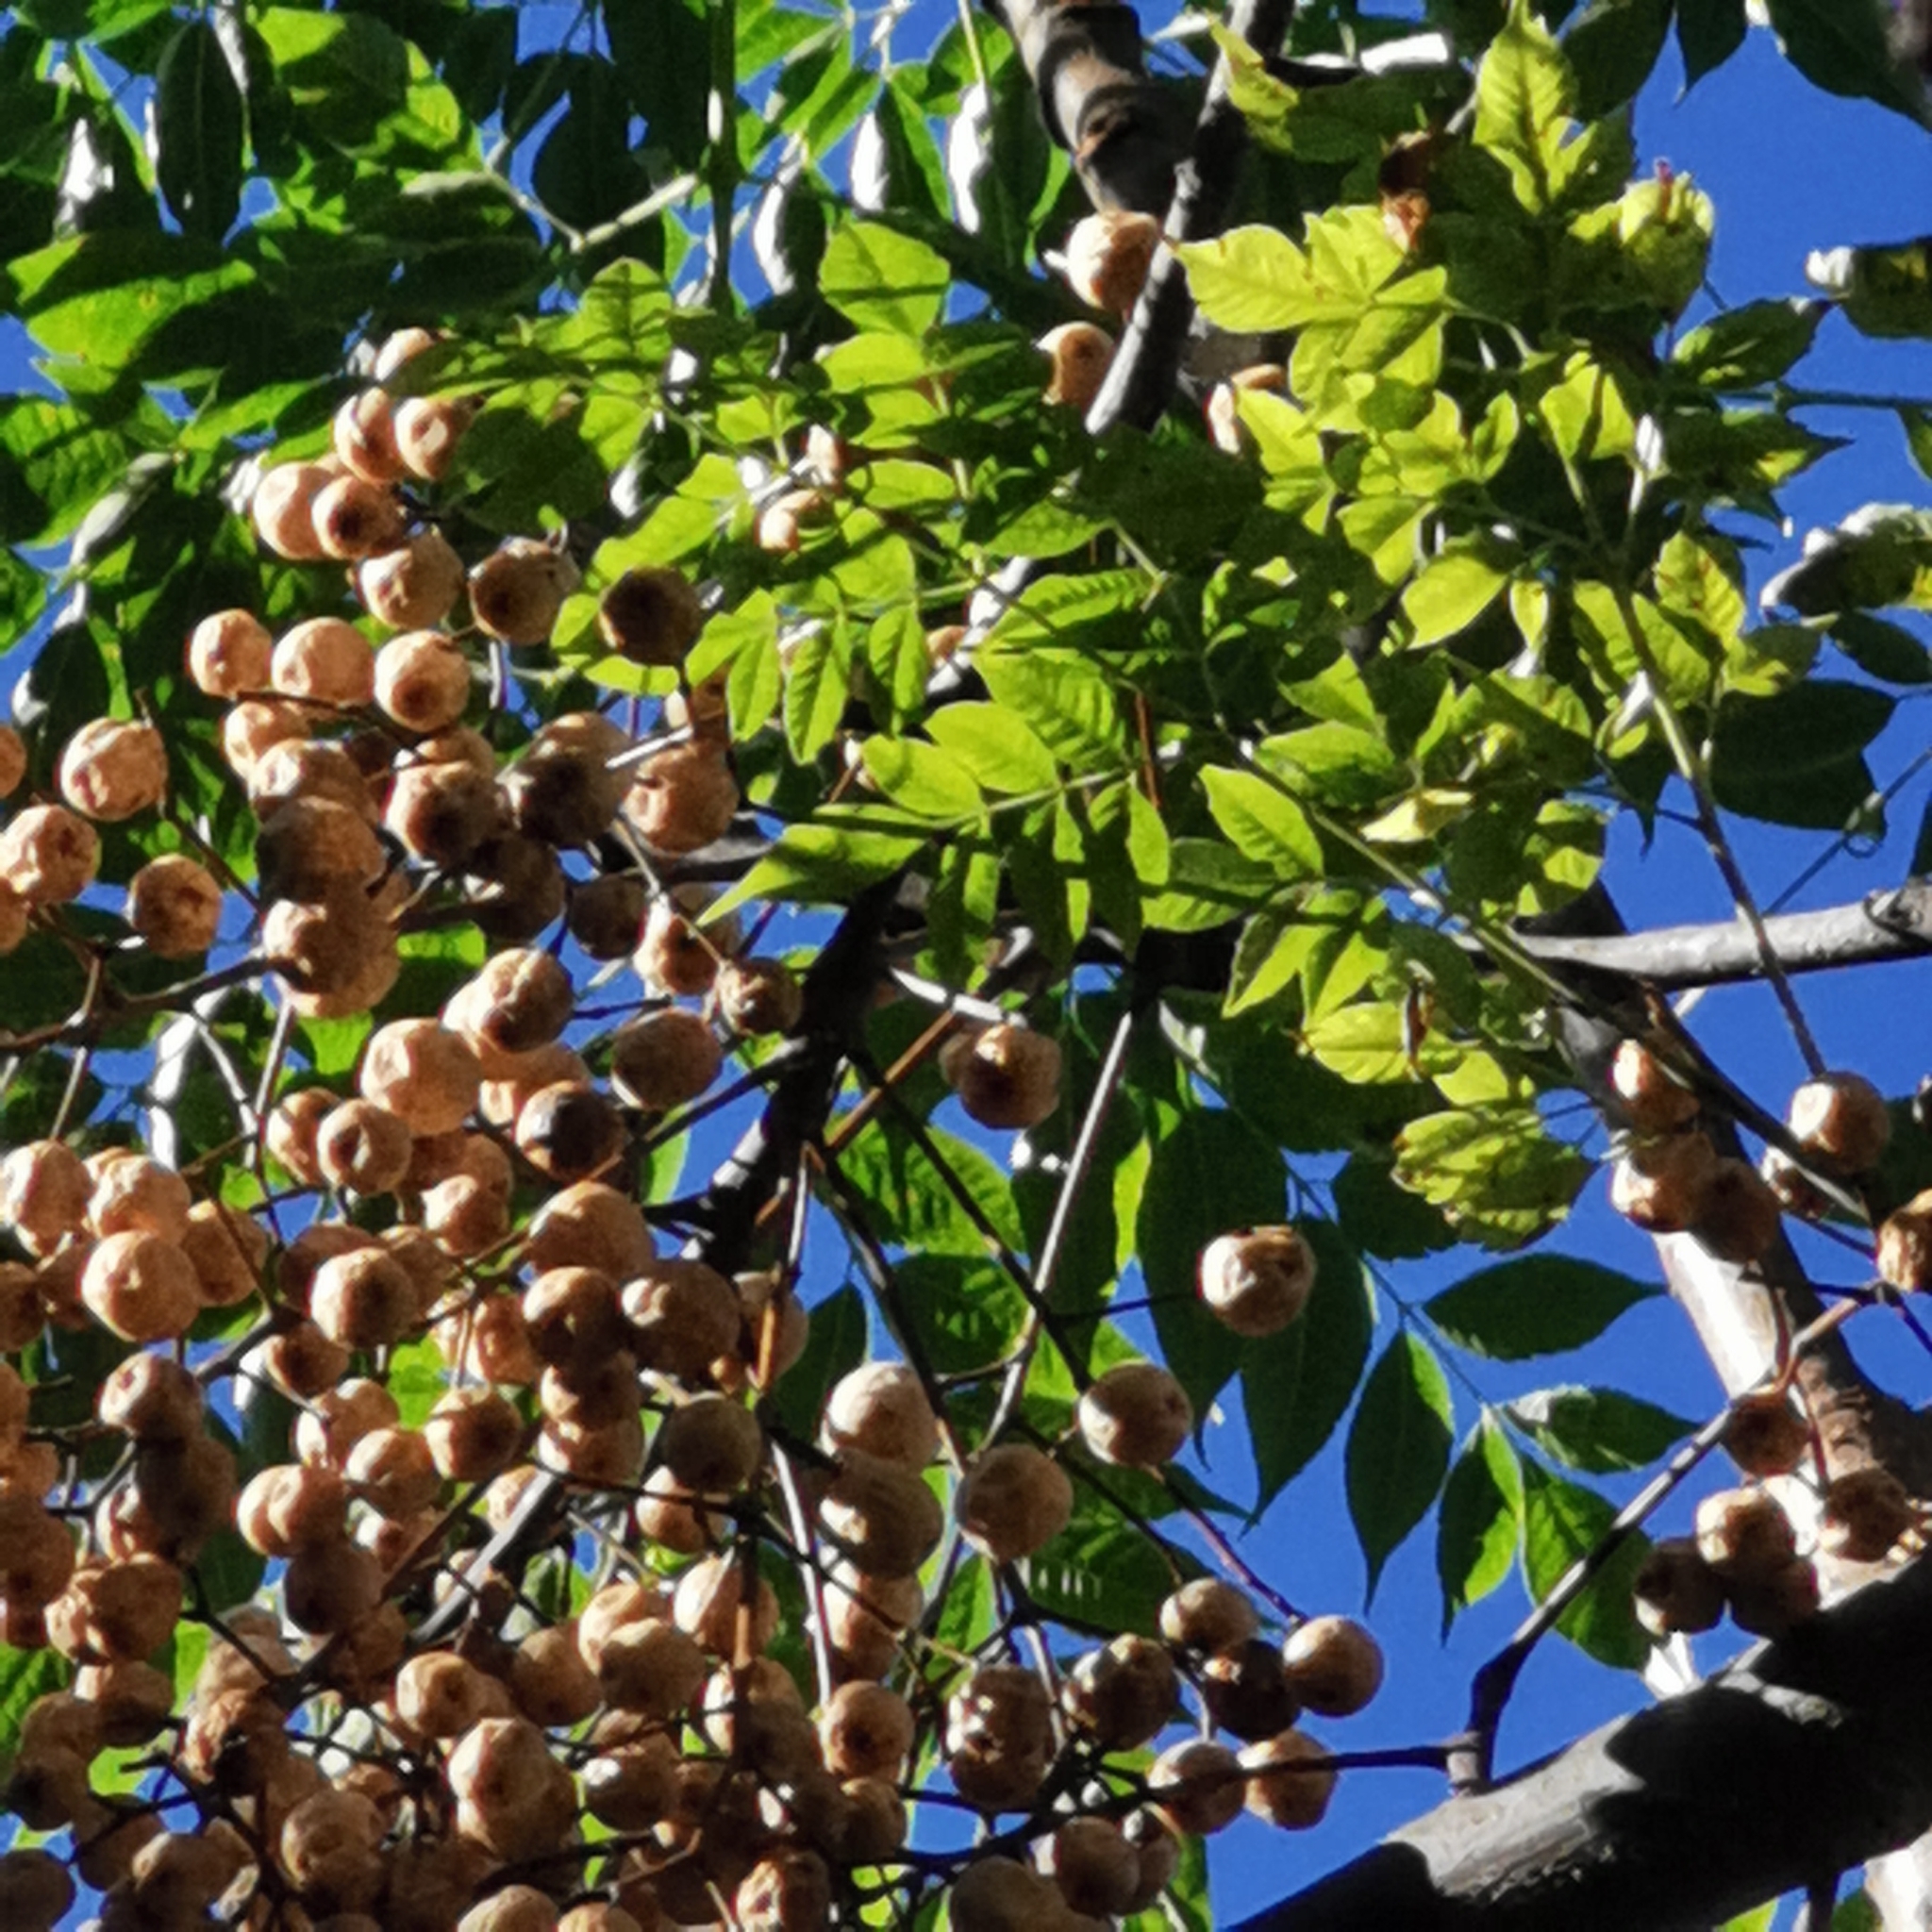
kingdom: Plantae
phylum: Tracheophyta
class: Magnoliopsida
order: Sapindales
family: Meliaceae
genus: Melia
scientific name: Melia azedarach
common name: Chinaberrytree
